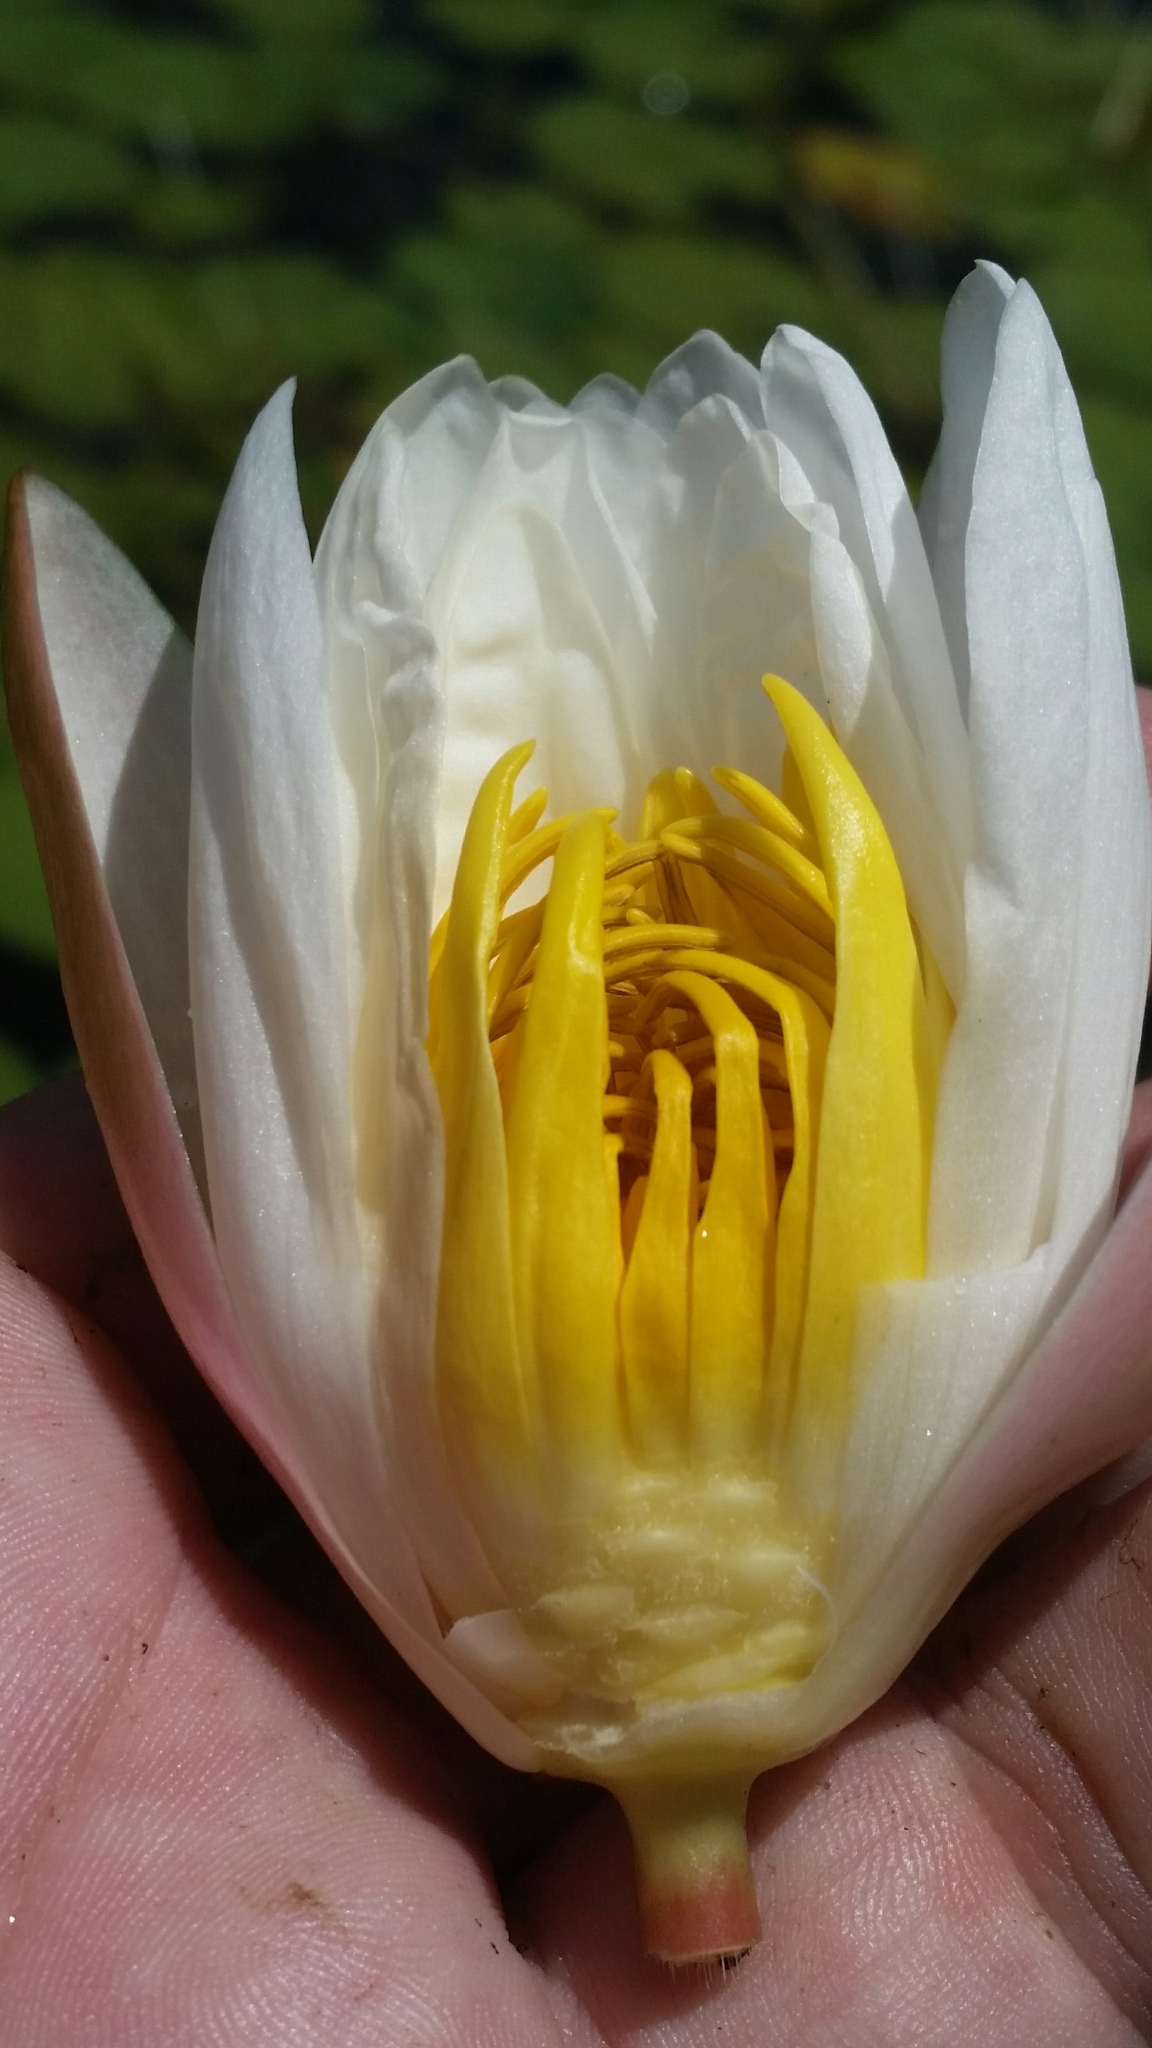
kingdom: Plantae
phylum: Tracheophyta
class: Magnoliopsida
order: Nymphaeales
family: Nymphaeaceae
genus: Nymphaea
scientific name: Nymphaea odorata
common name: Fragrant water-lily
